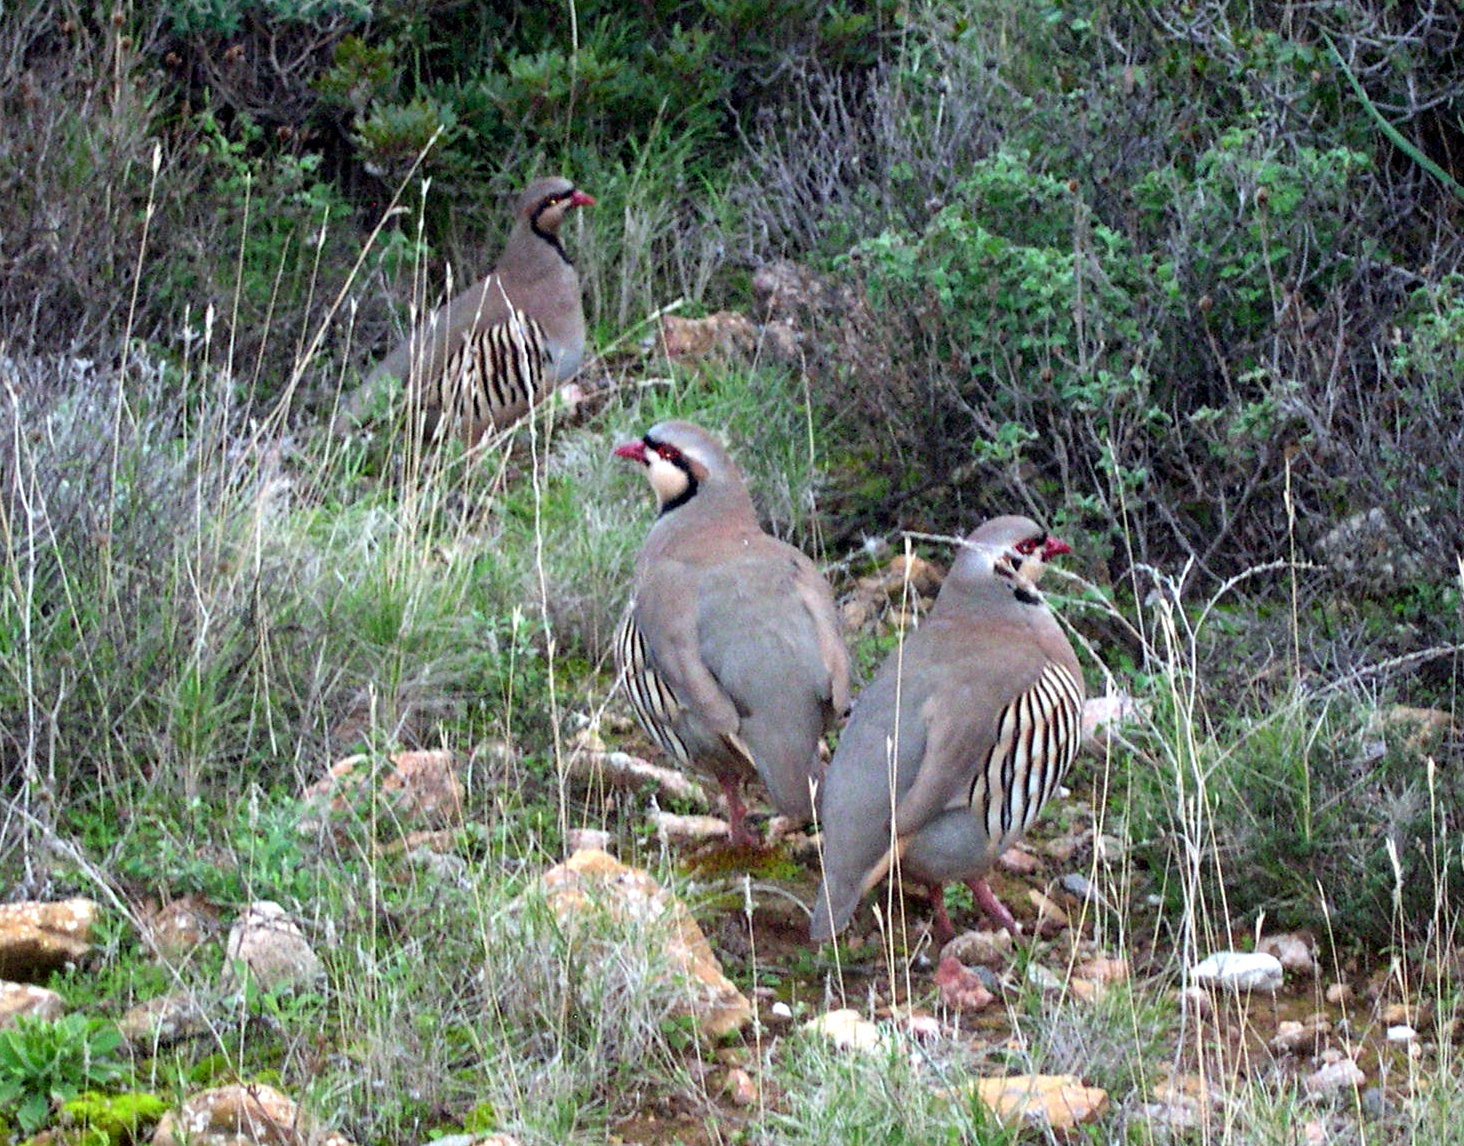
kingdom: Animalia
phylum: Chordata
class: Aves
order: Galliformes
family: Phasianidae
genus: Alectoris
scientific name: Alectoris chukar
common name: Chukar
